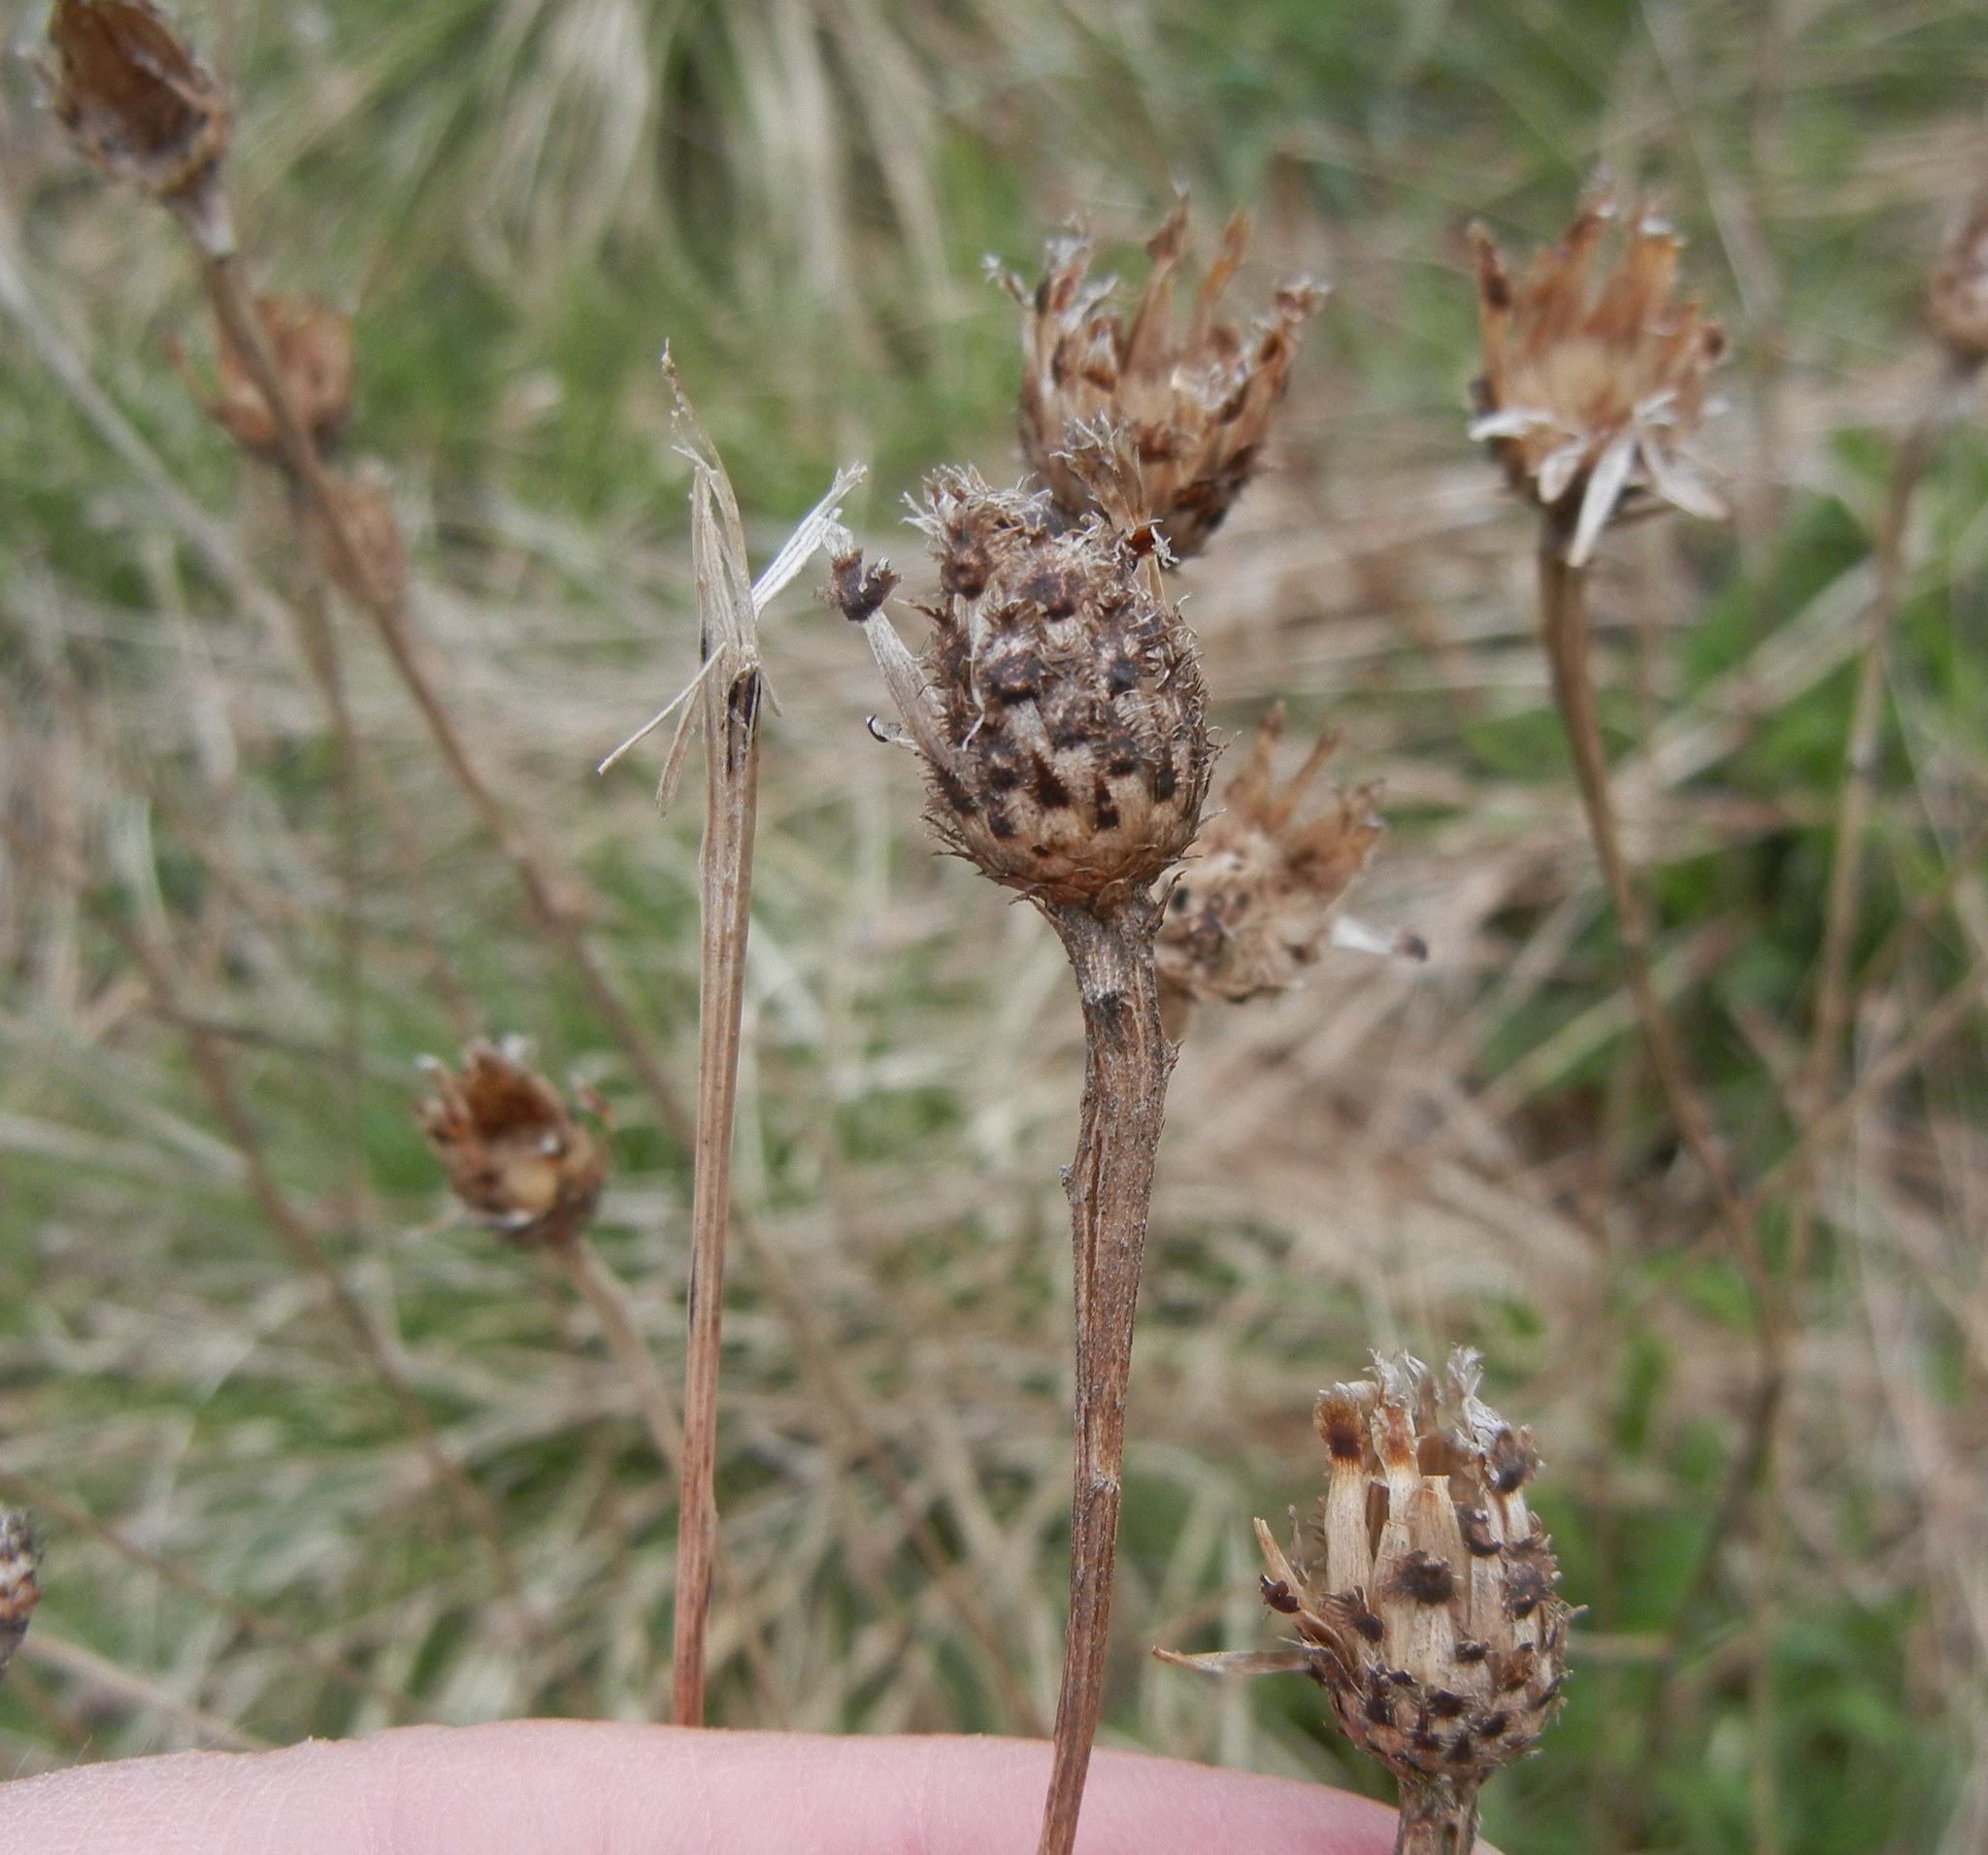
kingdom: Plantae
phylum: Tracheophyta
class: Magnoliopsida
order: Asterales
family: Asteraceae
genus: Centaurea
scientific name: Centaurea nigra
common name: Lesser knapweed
